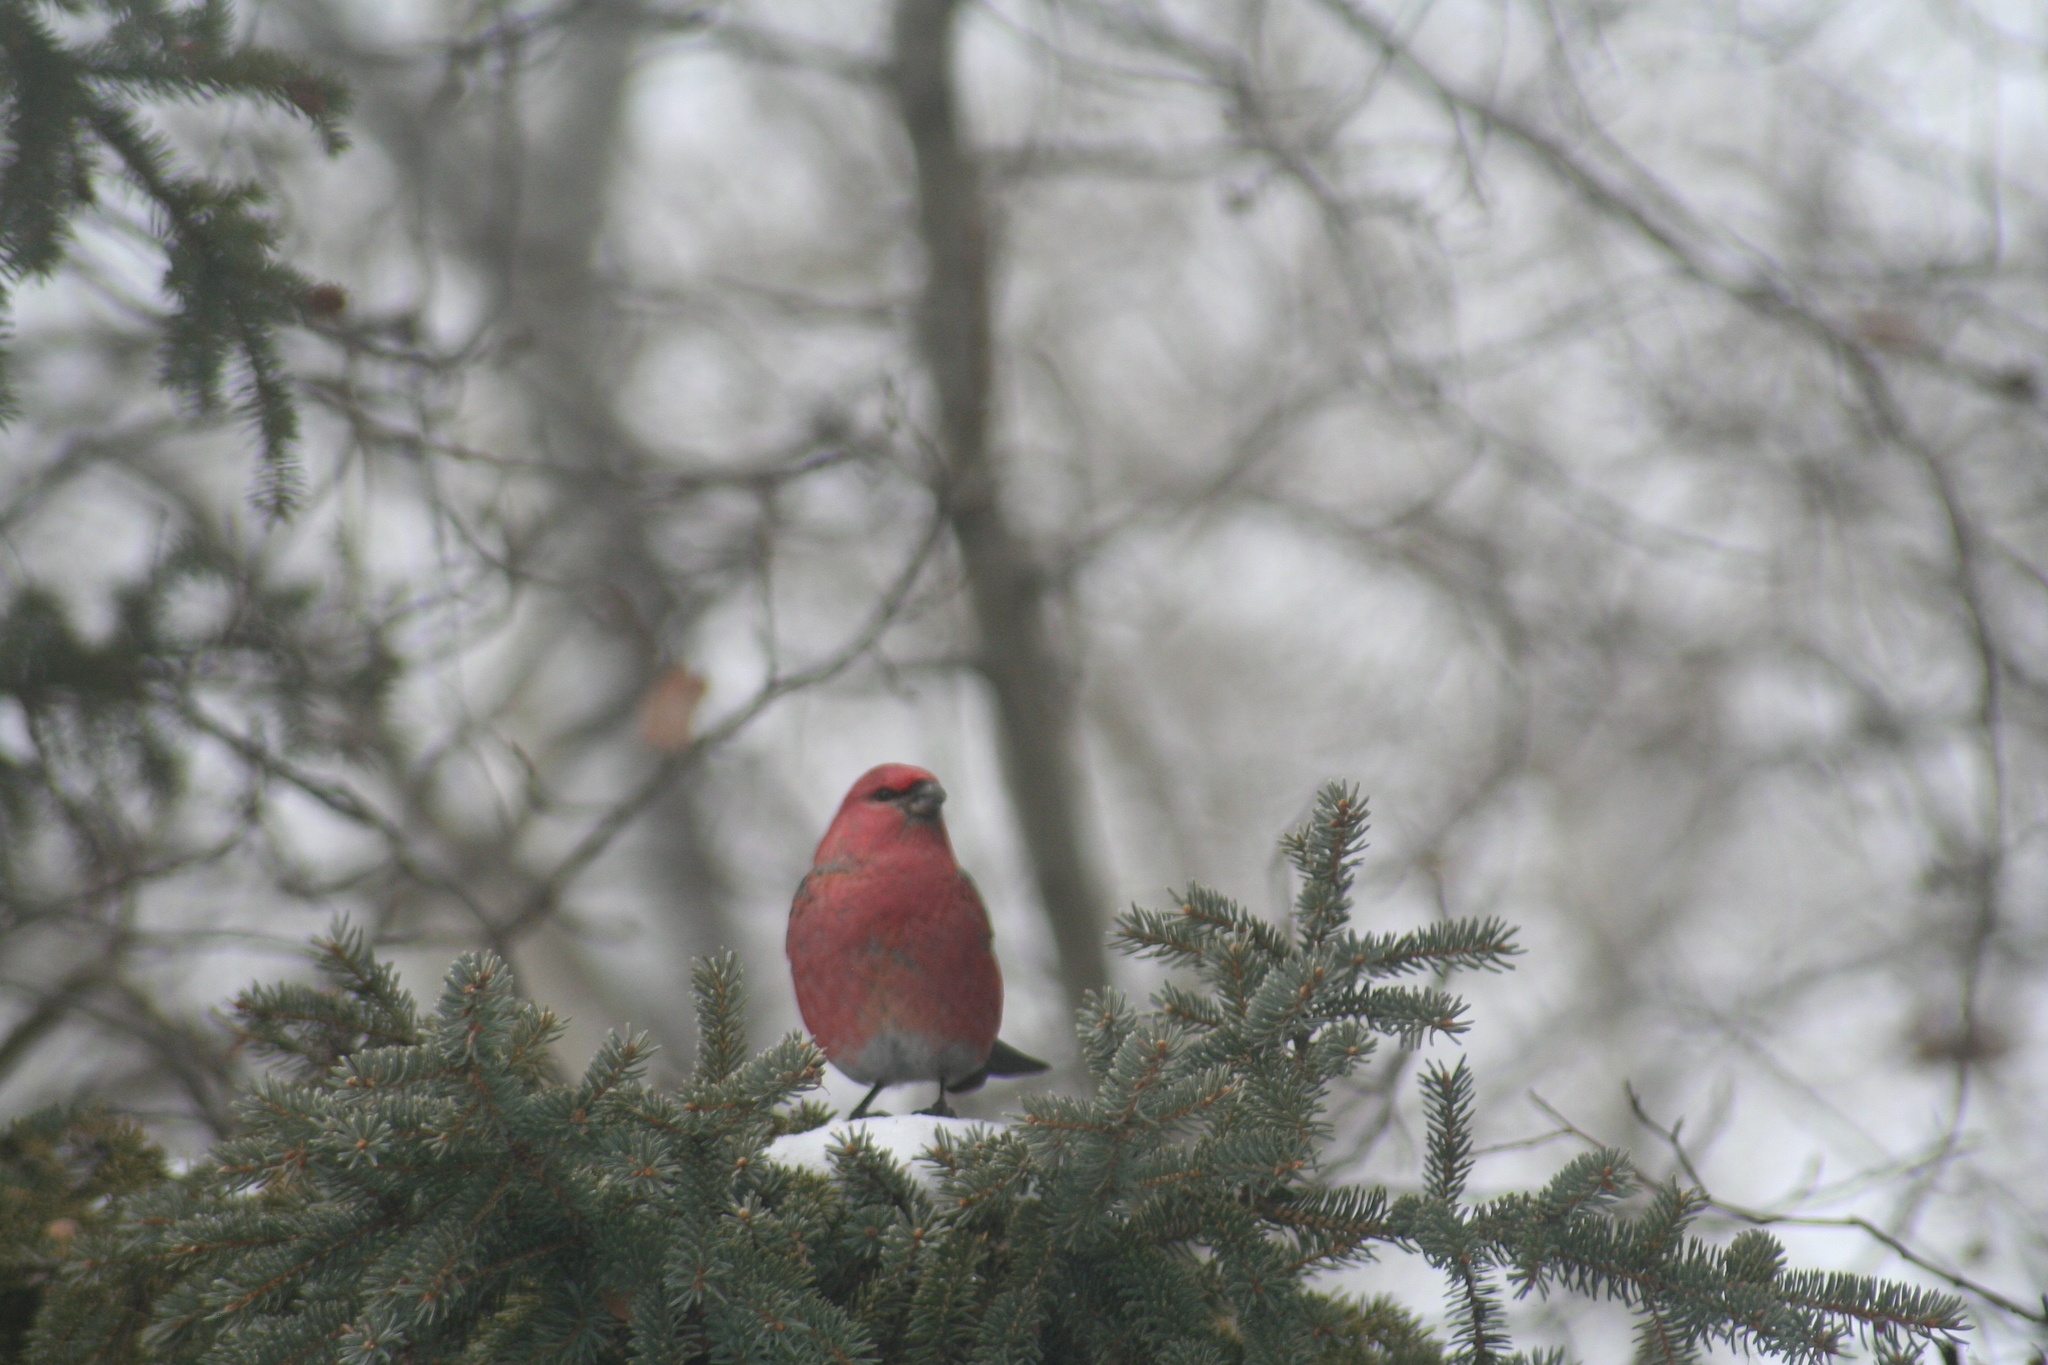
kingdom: Animalia
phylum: Chordata
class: Aves
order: Passeriformes
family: Fringillidae
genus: Pinicola
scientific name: Pinicola enucleator
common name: Pine grosbeak
